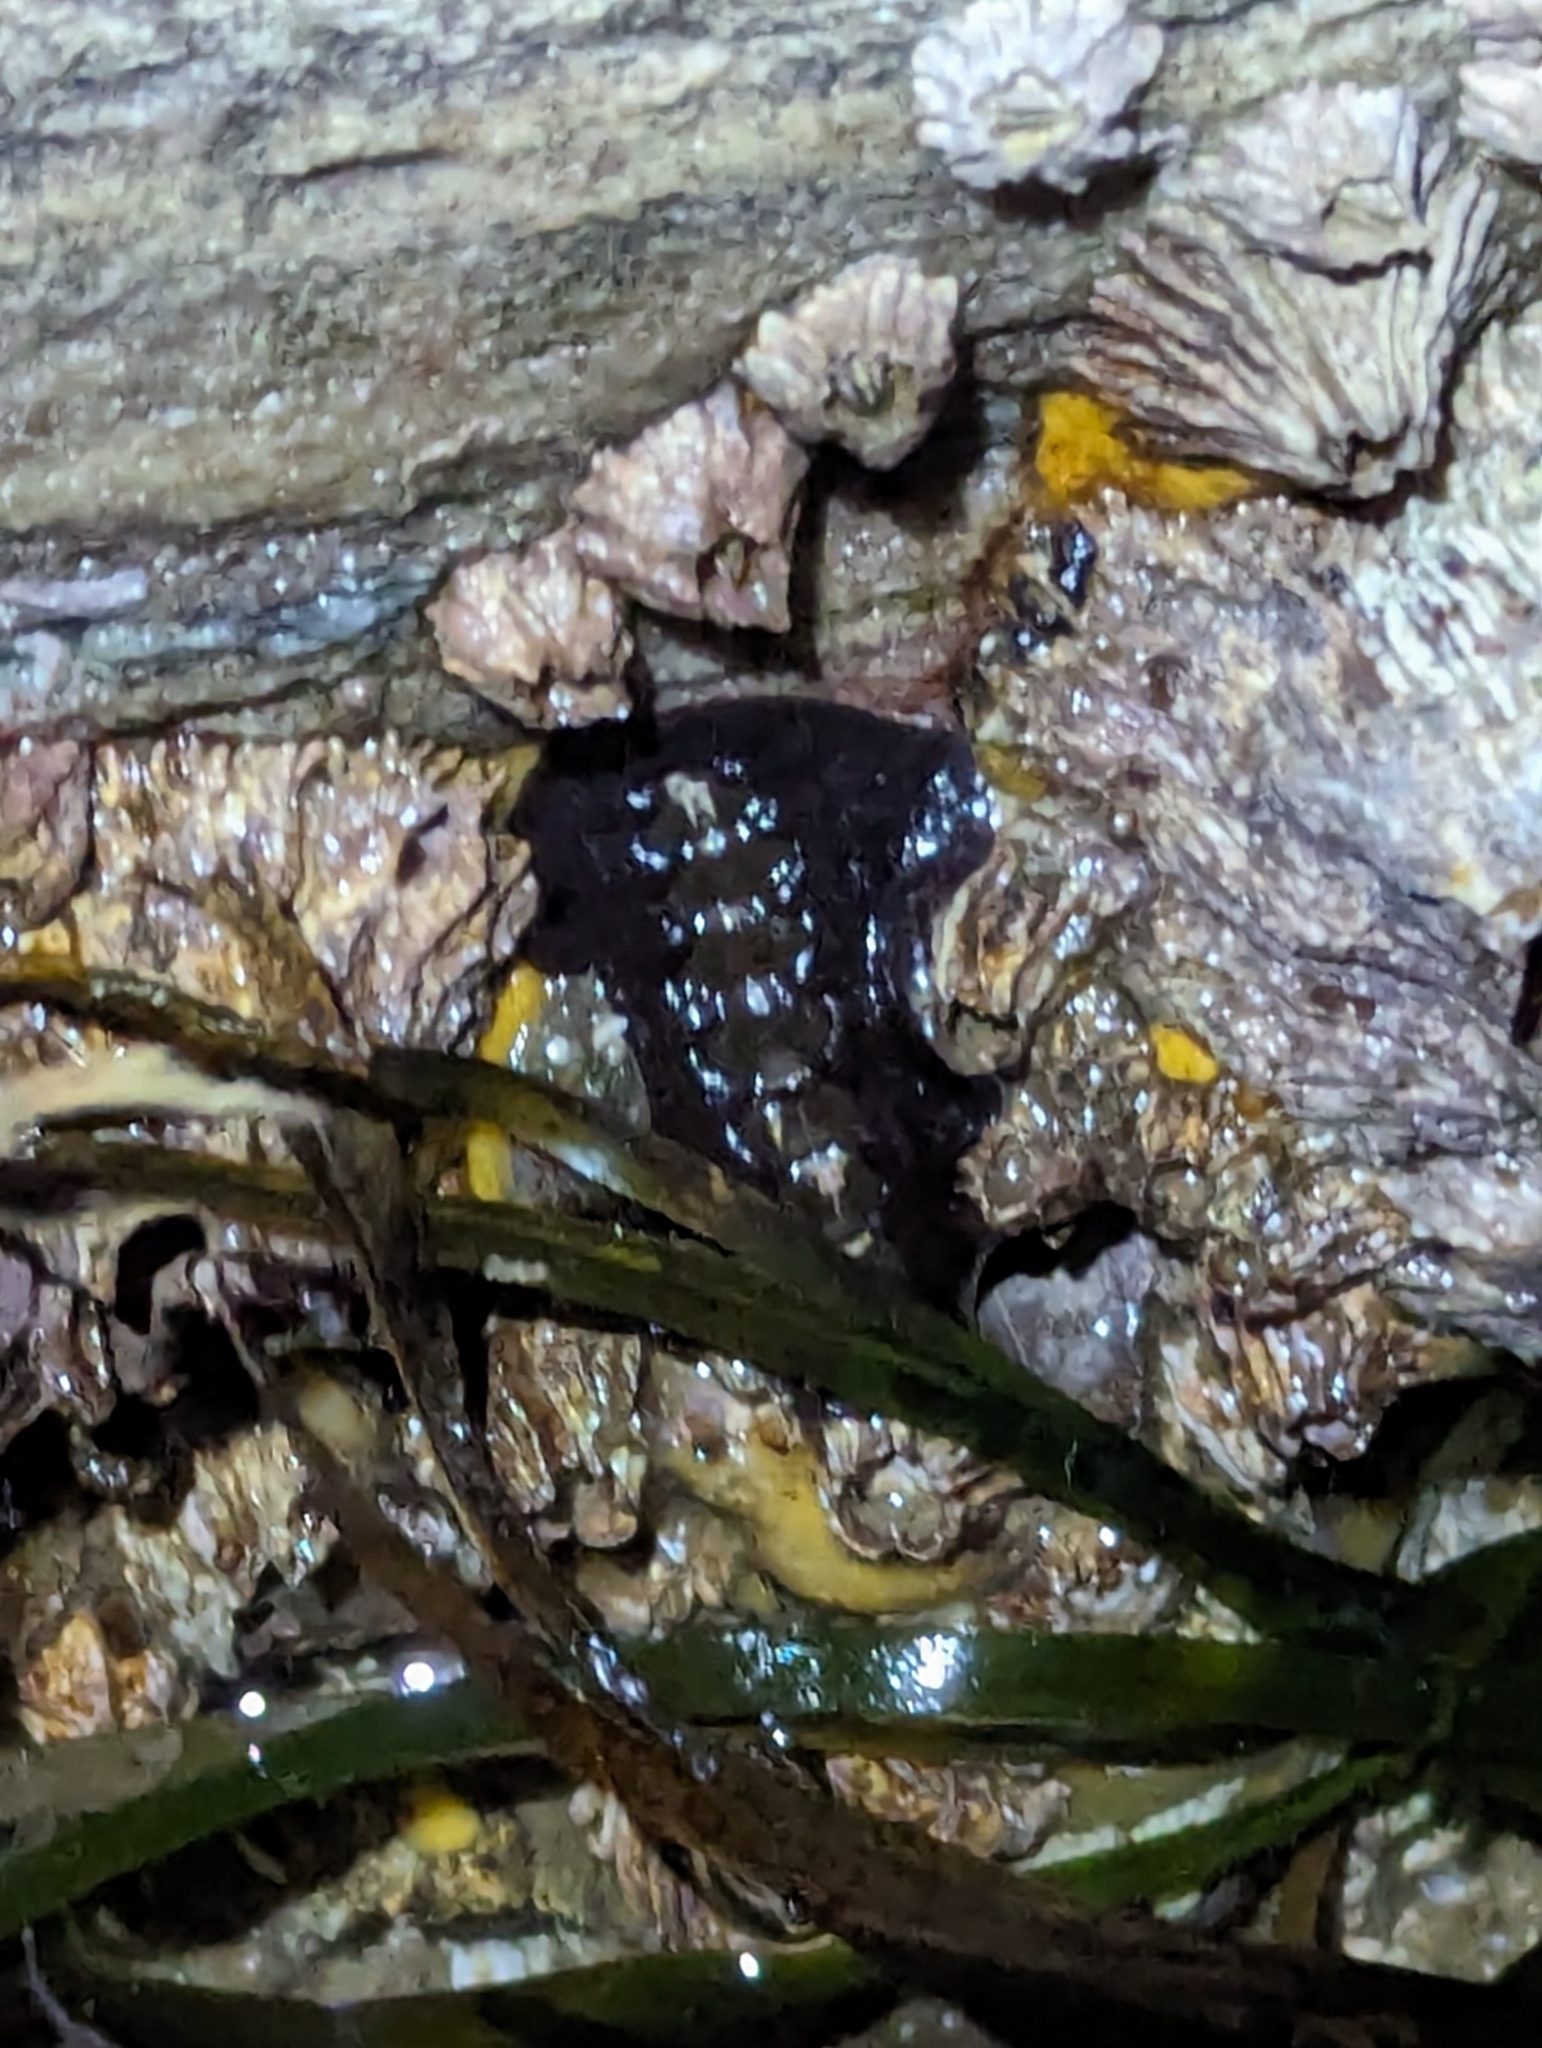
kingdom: Animalia
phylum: Mollusca
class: Polyplacophora
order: Chitonida
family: Mopaliidae
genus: Katharina
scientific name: Katharina tunicata
